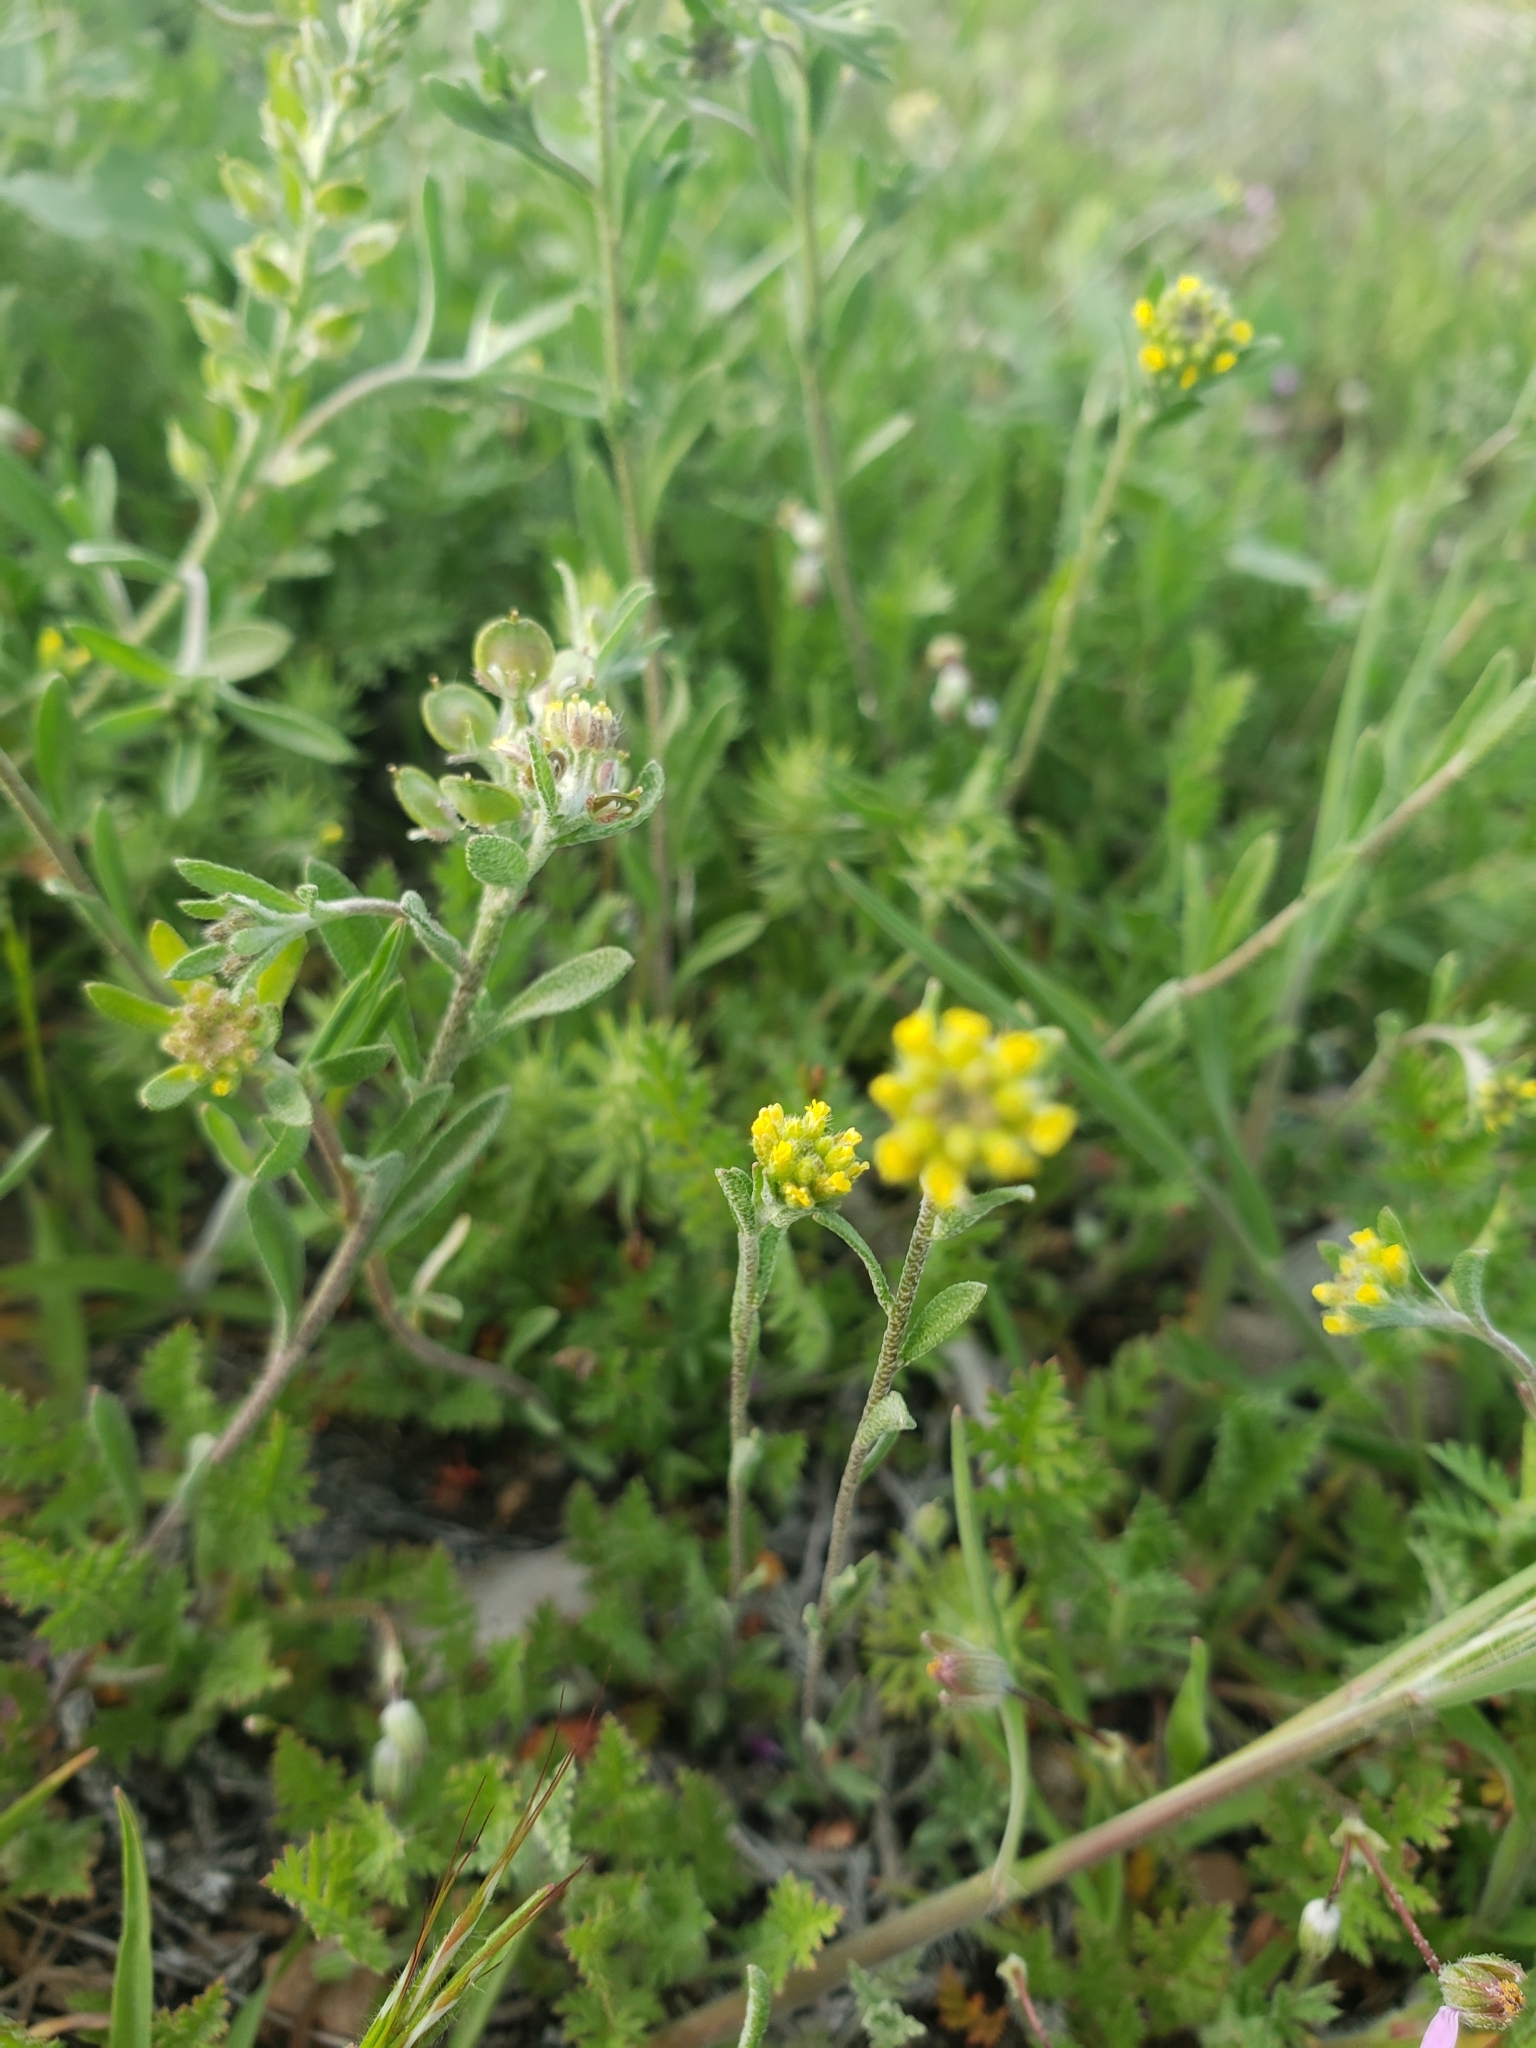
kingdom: Plantae
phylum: Tracheophyta
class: Magnoliopsida
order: Brassicales
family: Brassicaceae
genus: Alyssum
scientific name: Alyssum turkestanicum
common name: Desert alyssum
